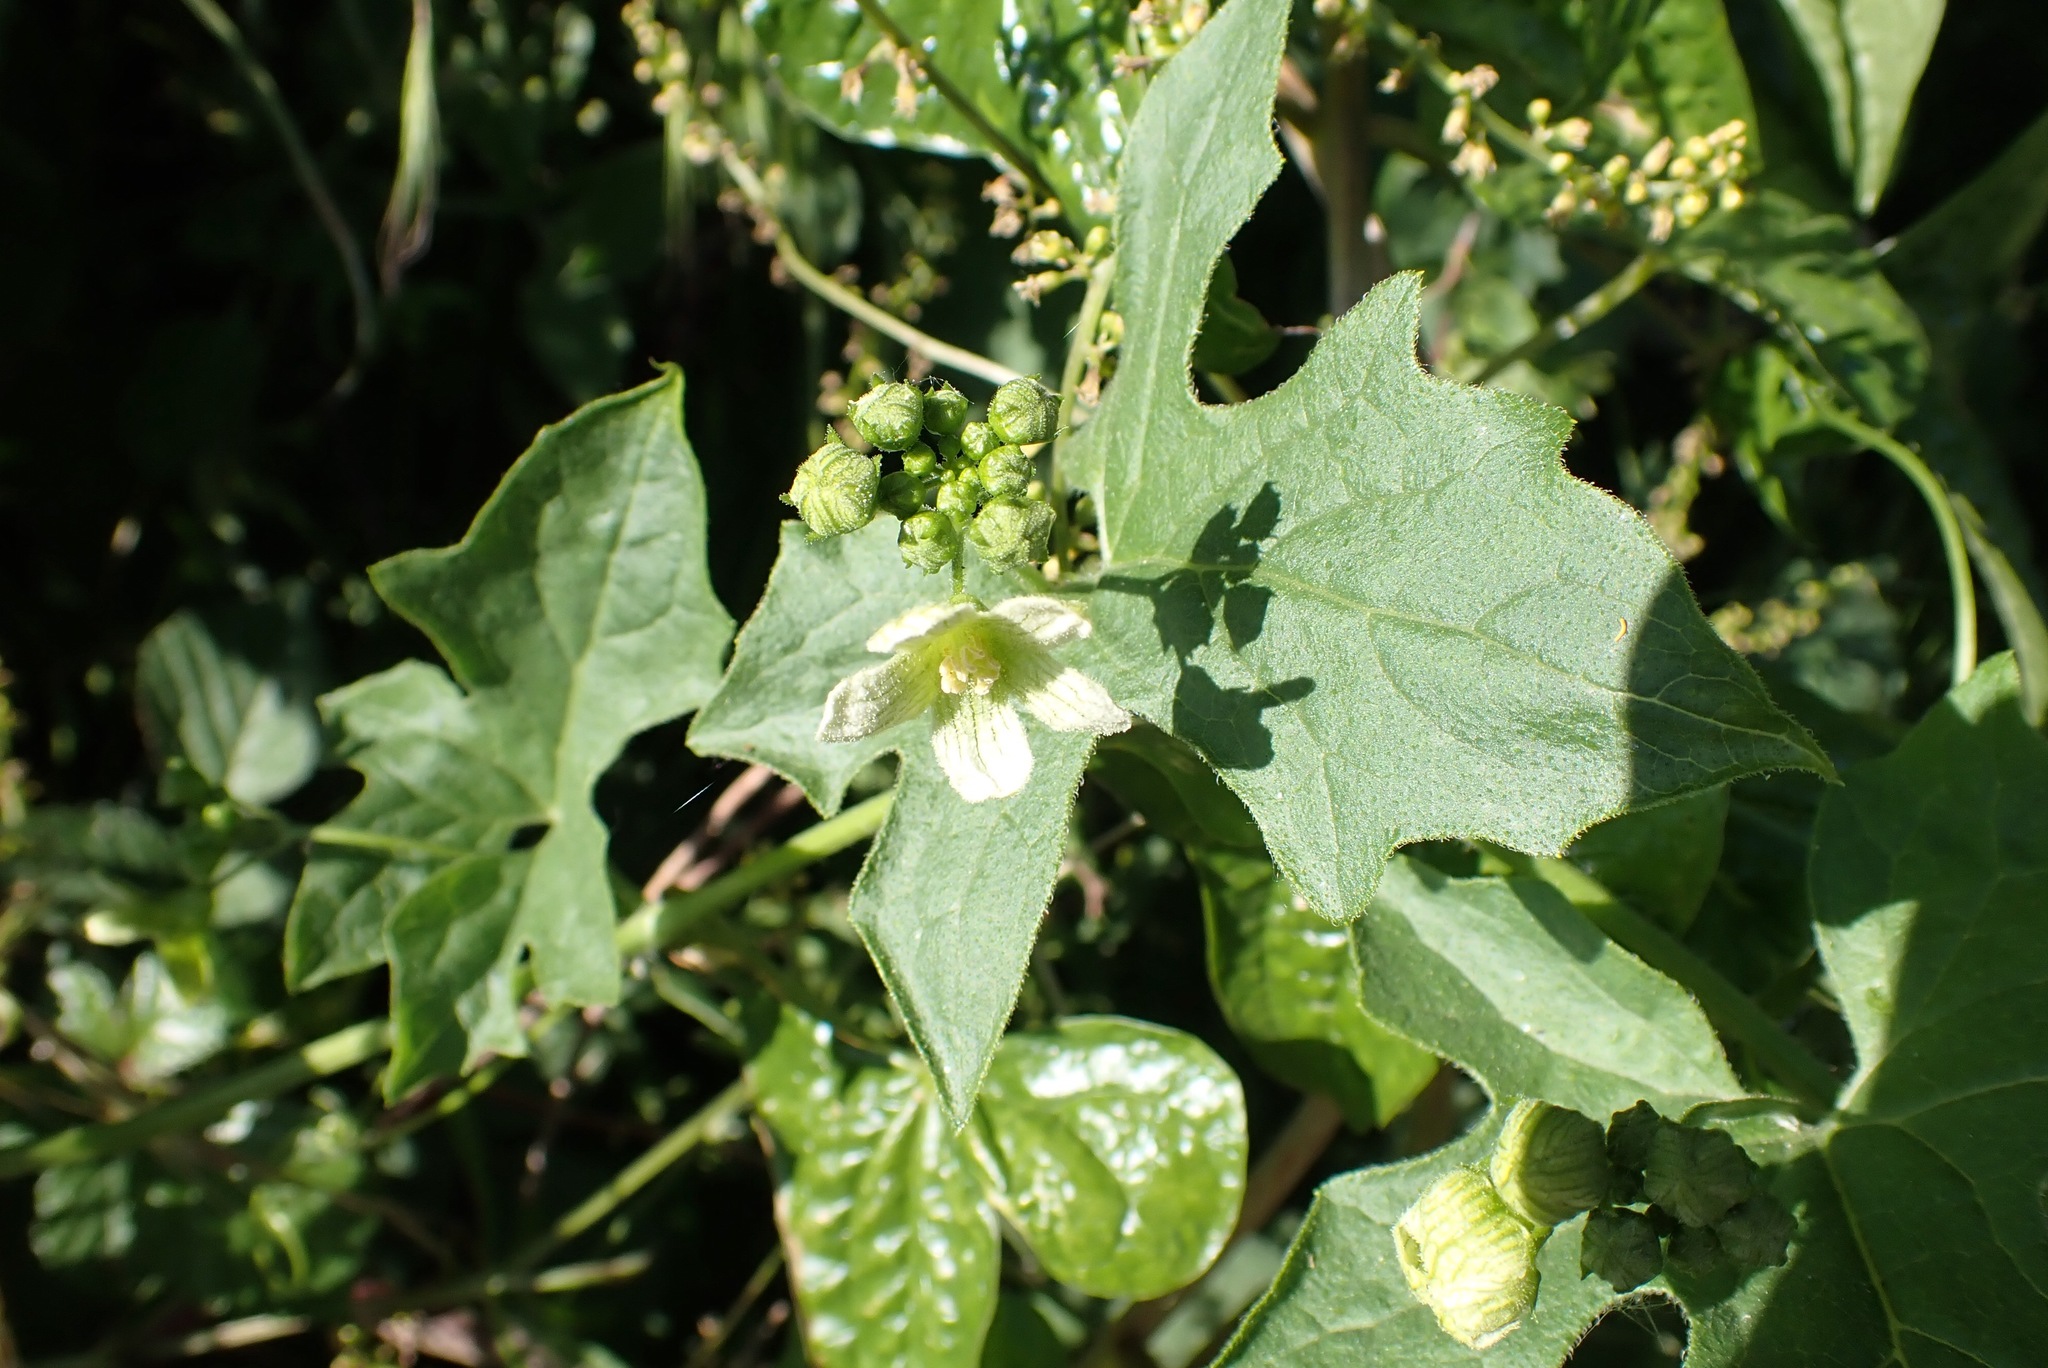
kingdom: Plantae
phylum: Tracheophyta
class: Magnoliopsida
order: Cucurbitales
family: Cucurbitaceae
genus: Bryonia
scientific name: Bryonia cretica
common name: Cretan bryony
